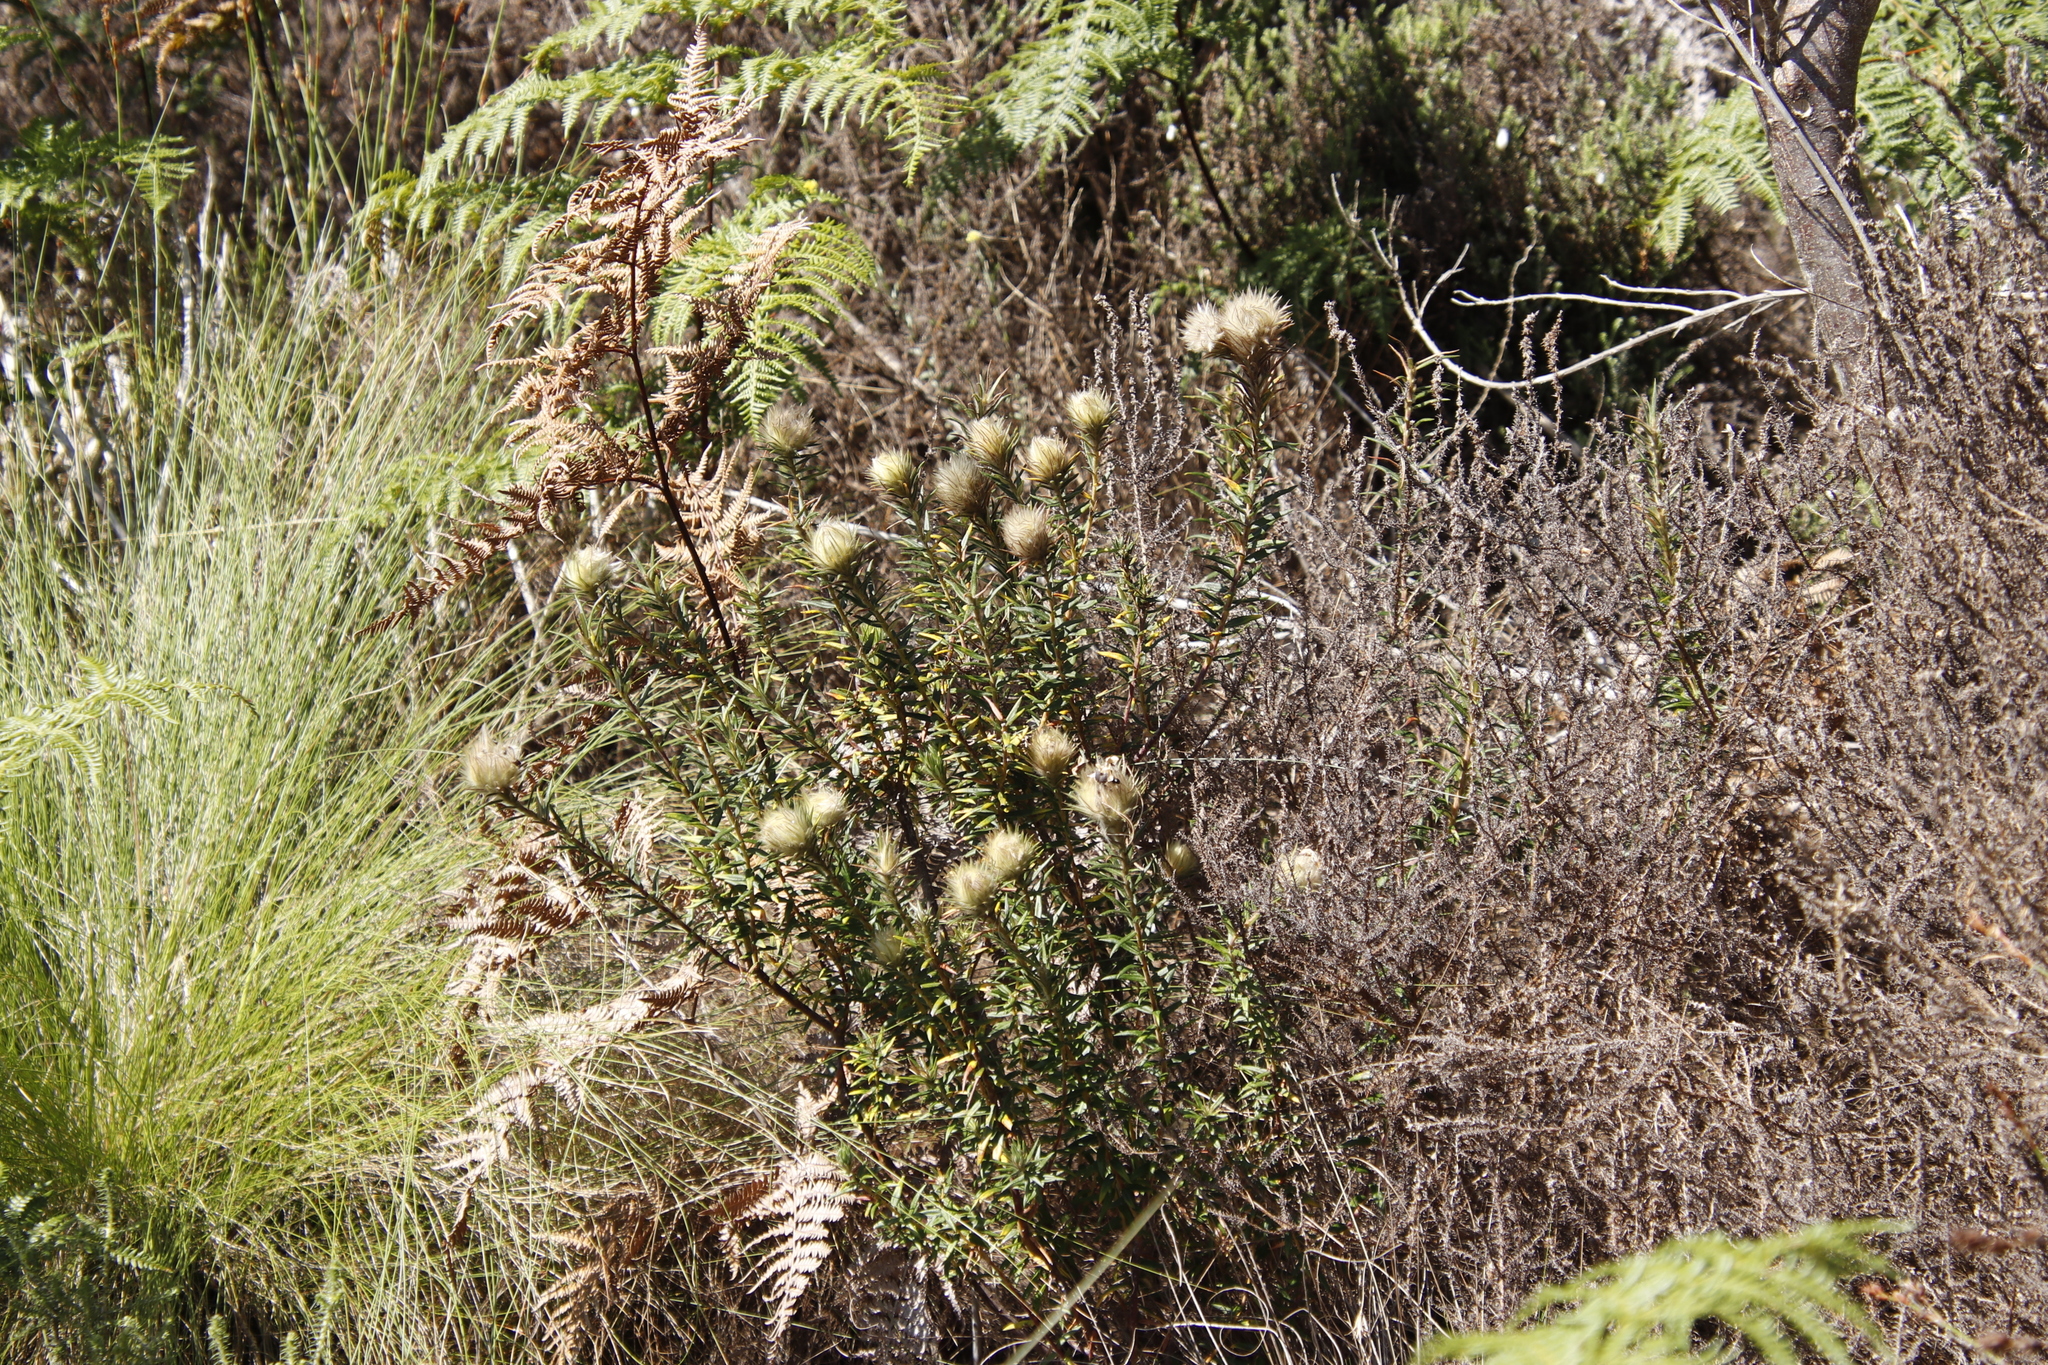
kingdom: Plantae
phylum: Tracheophyta
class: Magnoliopsida
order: Rosales
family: Rhamnaceae
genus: Phylica
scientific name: Phylica pubescens
